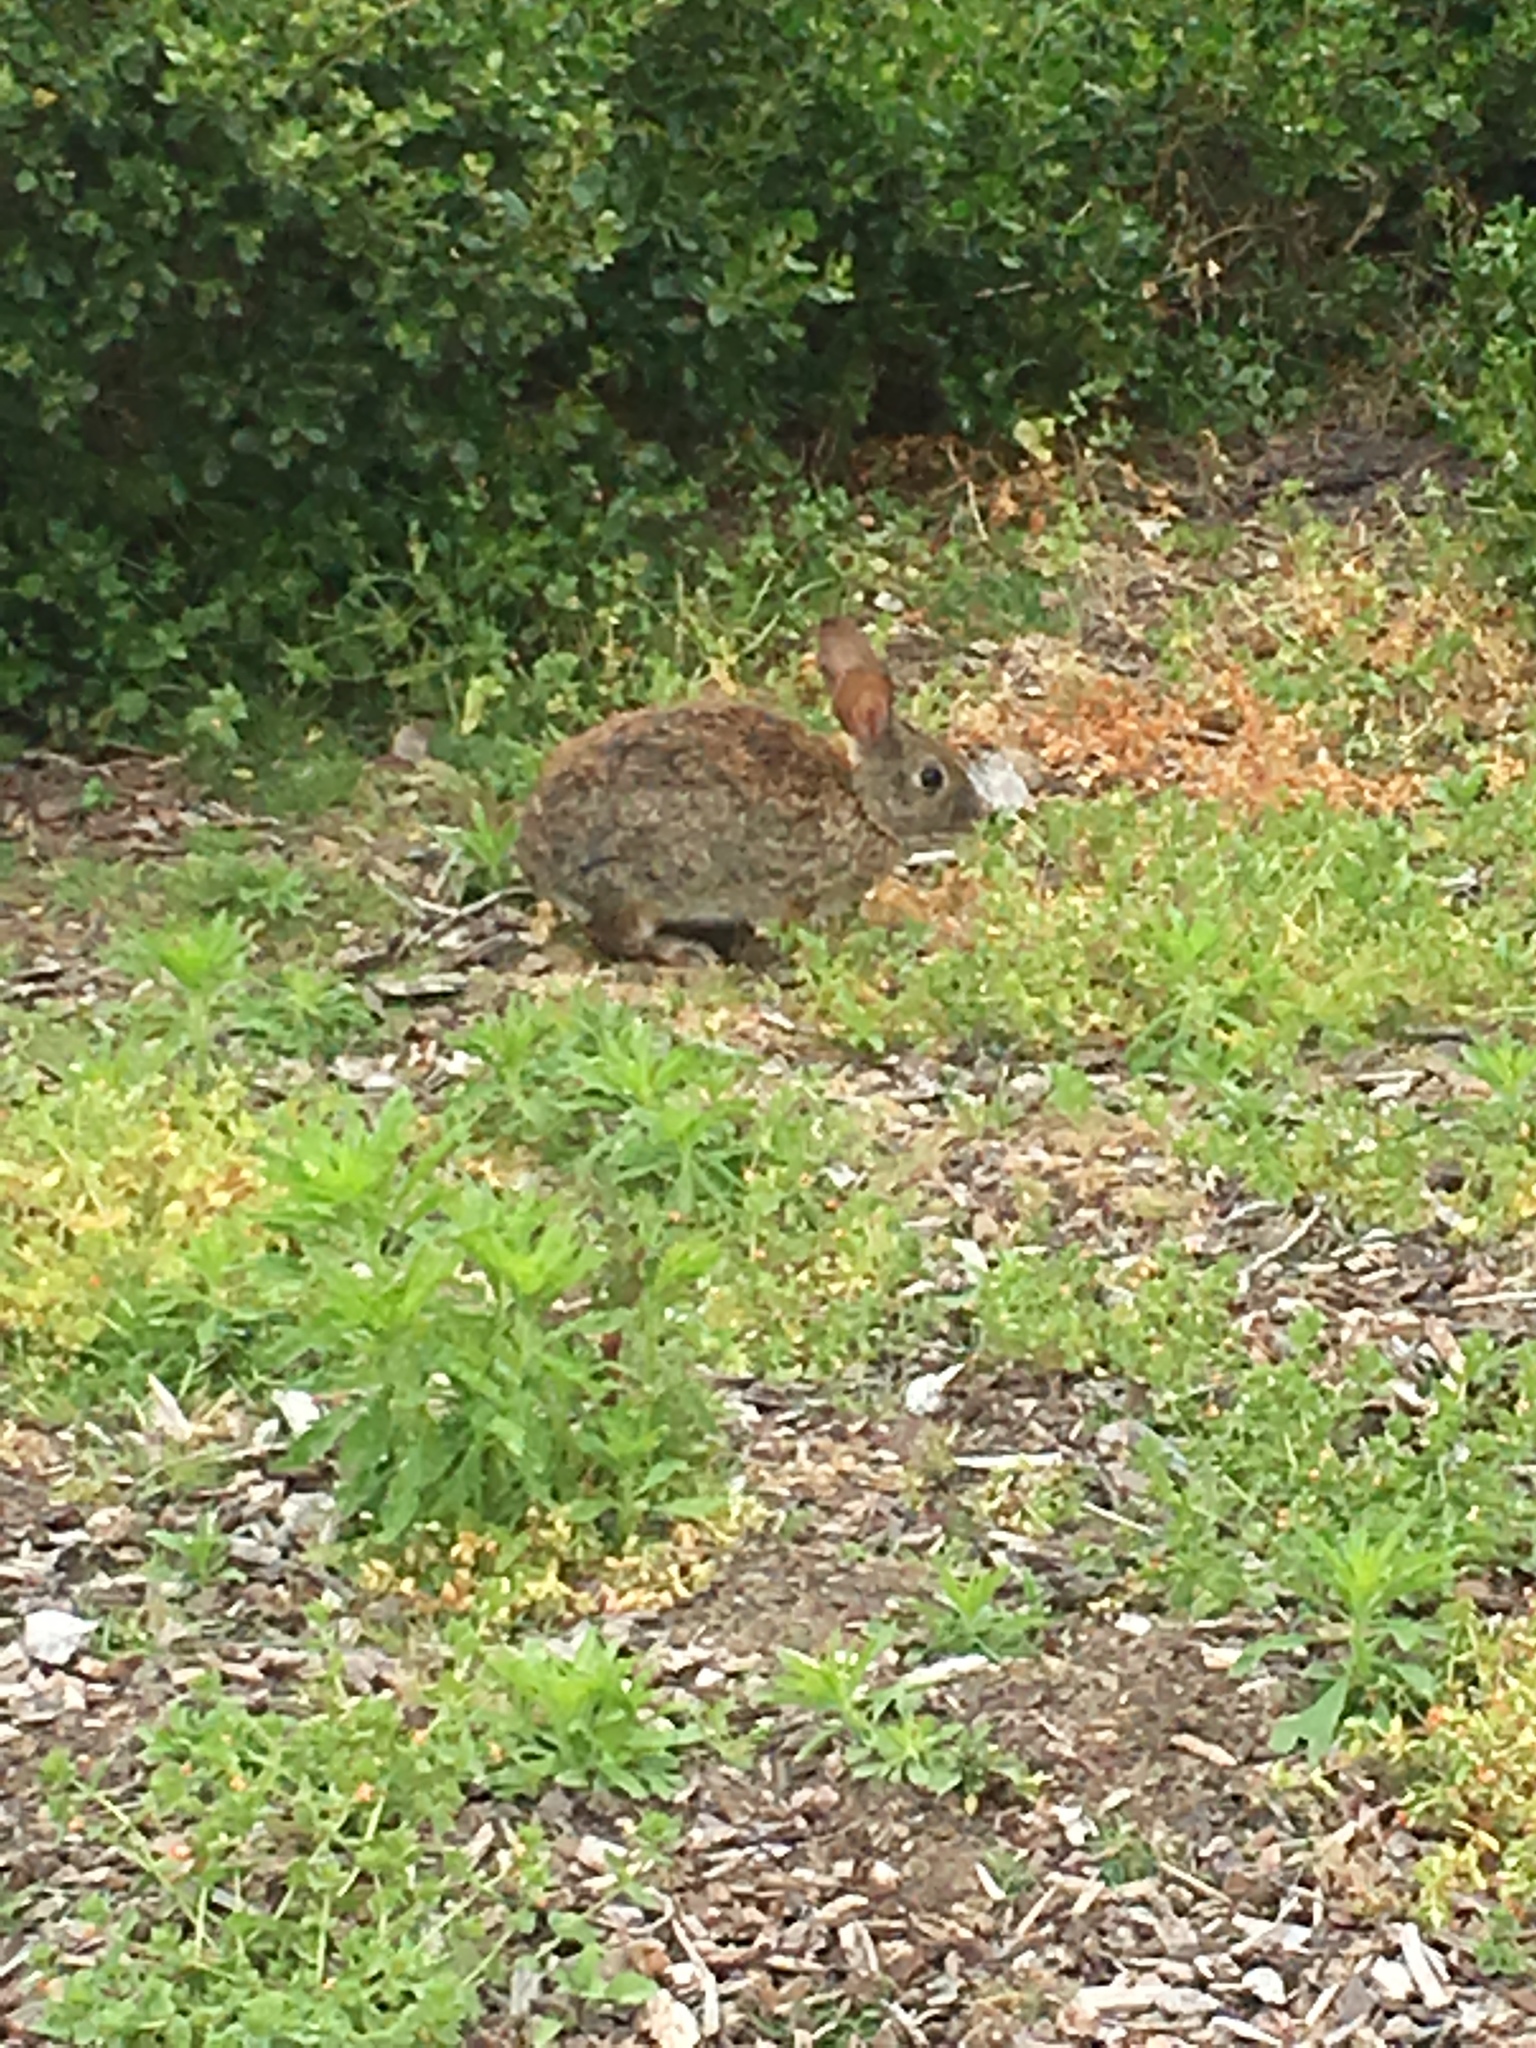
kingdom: Animalia
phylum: Chordata
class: Mammalia
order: Lagomorpha
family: Leporidae
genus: Sylvilagus
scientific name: Sylvilagus bachmani
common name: Brush rabbit
